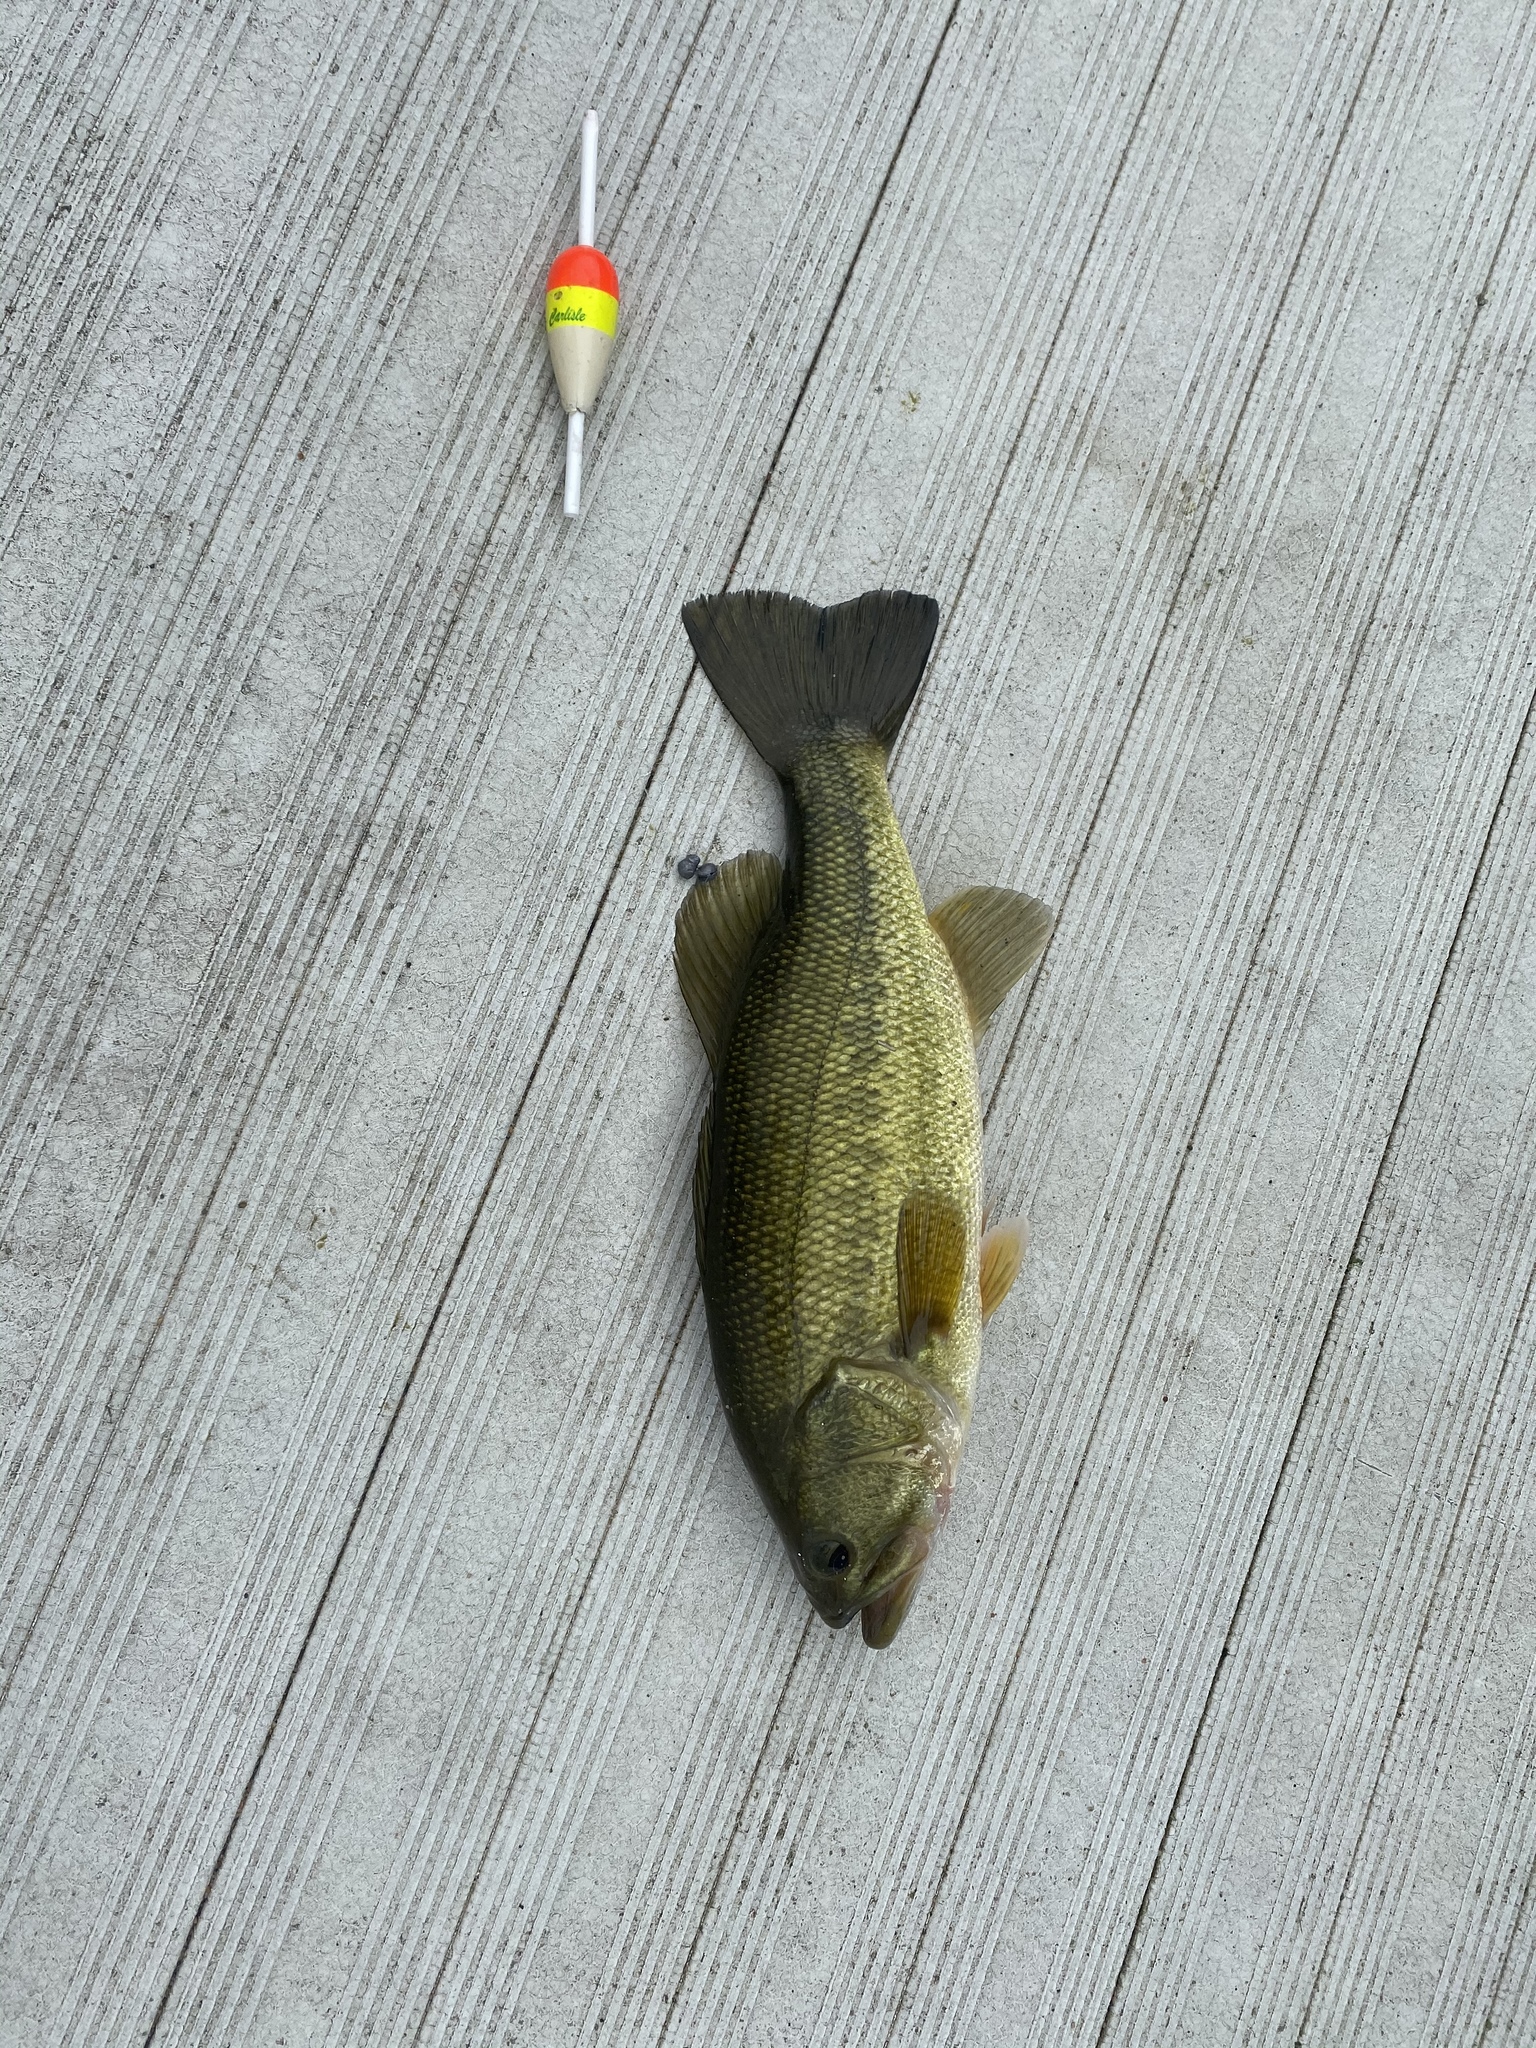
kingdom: Animalia
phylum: Chordata
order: Perciformes
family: Centrarchidae
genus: Micropterus
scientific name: Micropterus
